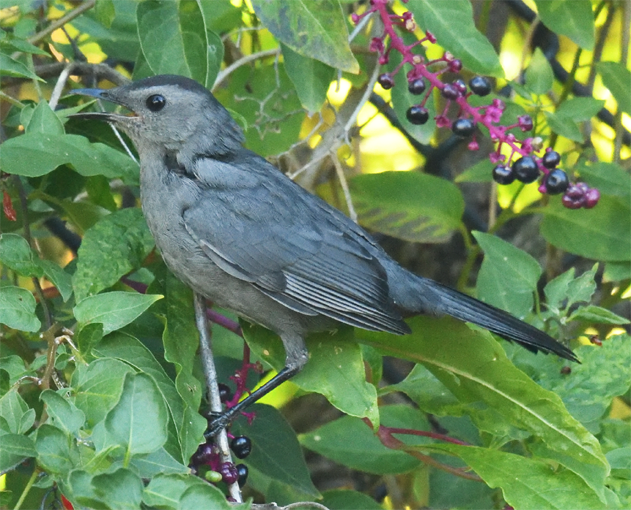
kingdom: Animalia
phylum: Chordata
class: Aves
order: Passeriformes
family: Mimidae
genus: Dumetella
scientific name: Dumetella carolinensis
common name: Gray catbird
